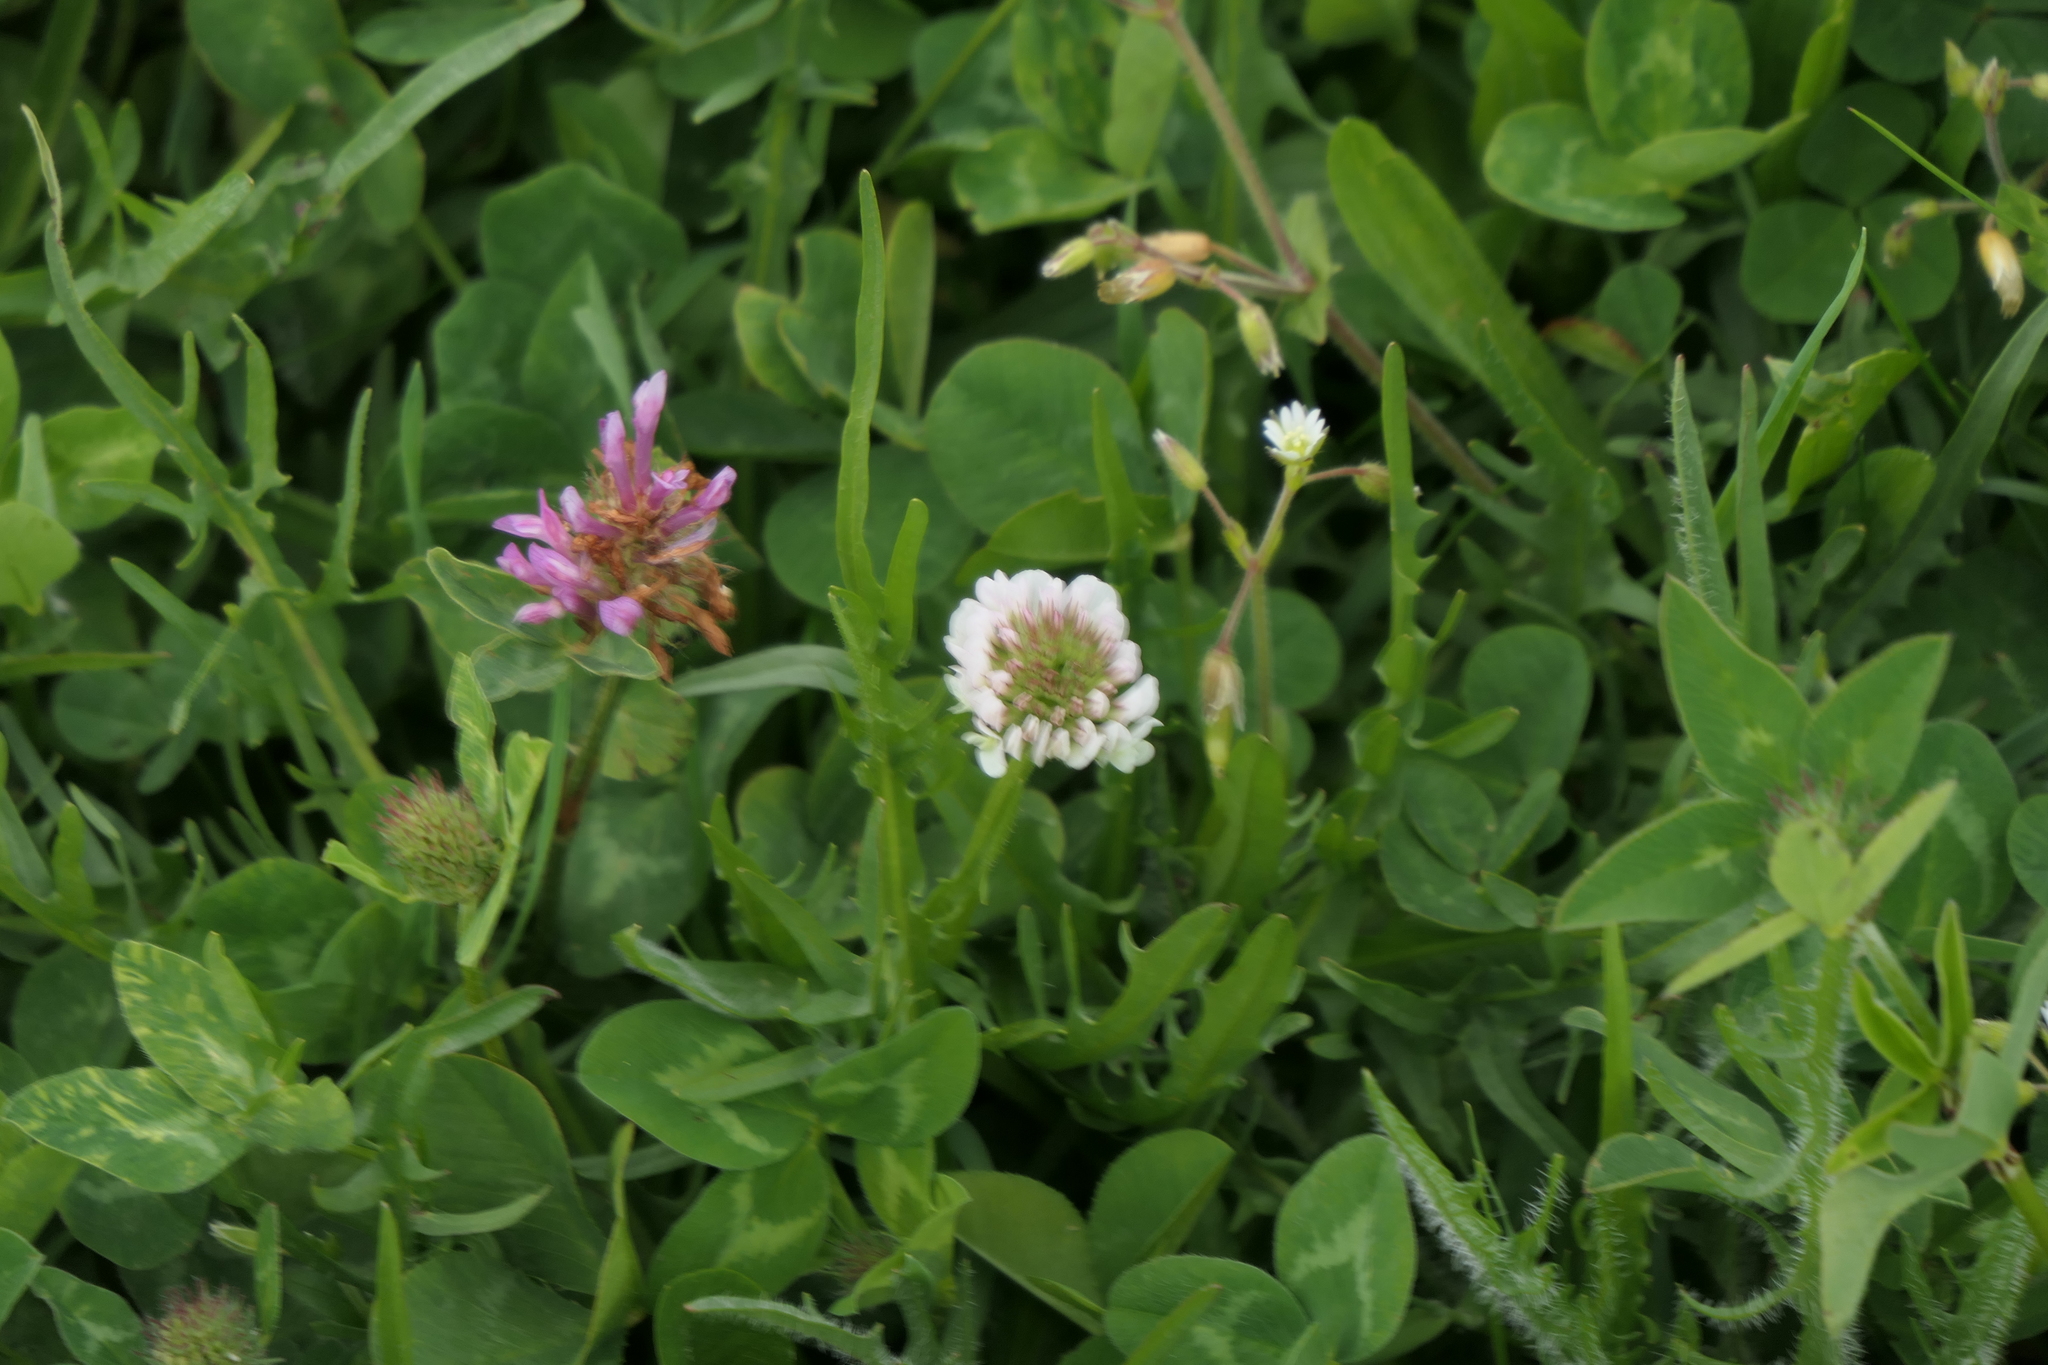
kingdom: Plantae
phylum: Tracheophyta
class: Magnoliopsida
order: Fabales
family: Fabaceae
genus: Trifolium
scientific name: Trifolium repens
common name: White clover
